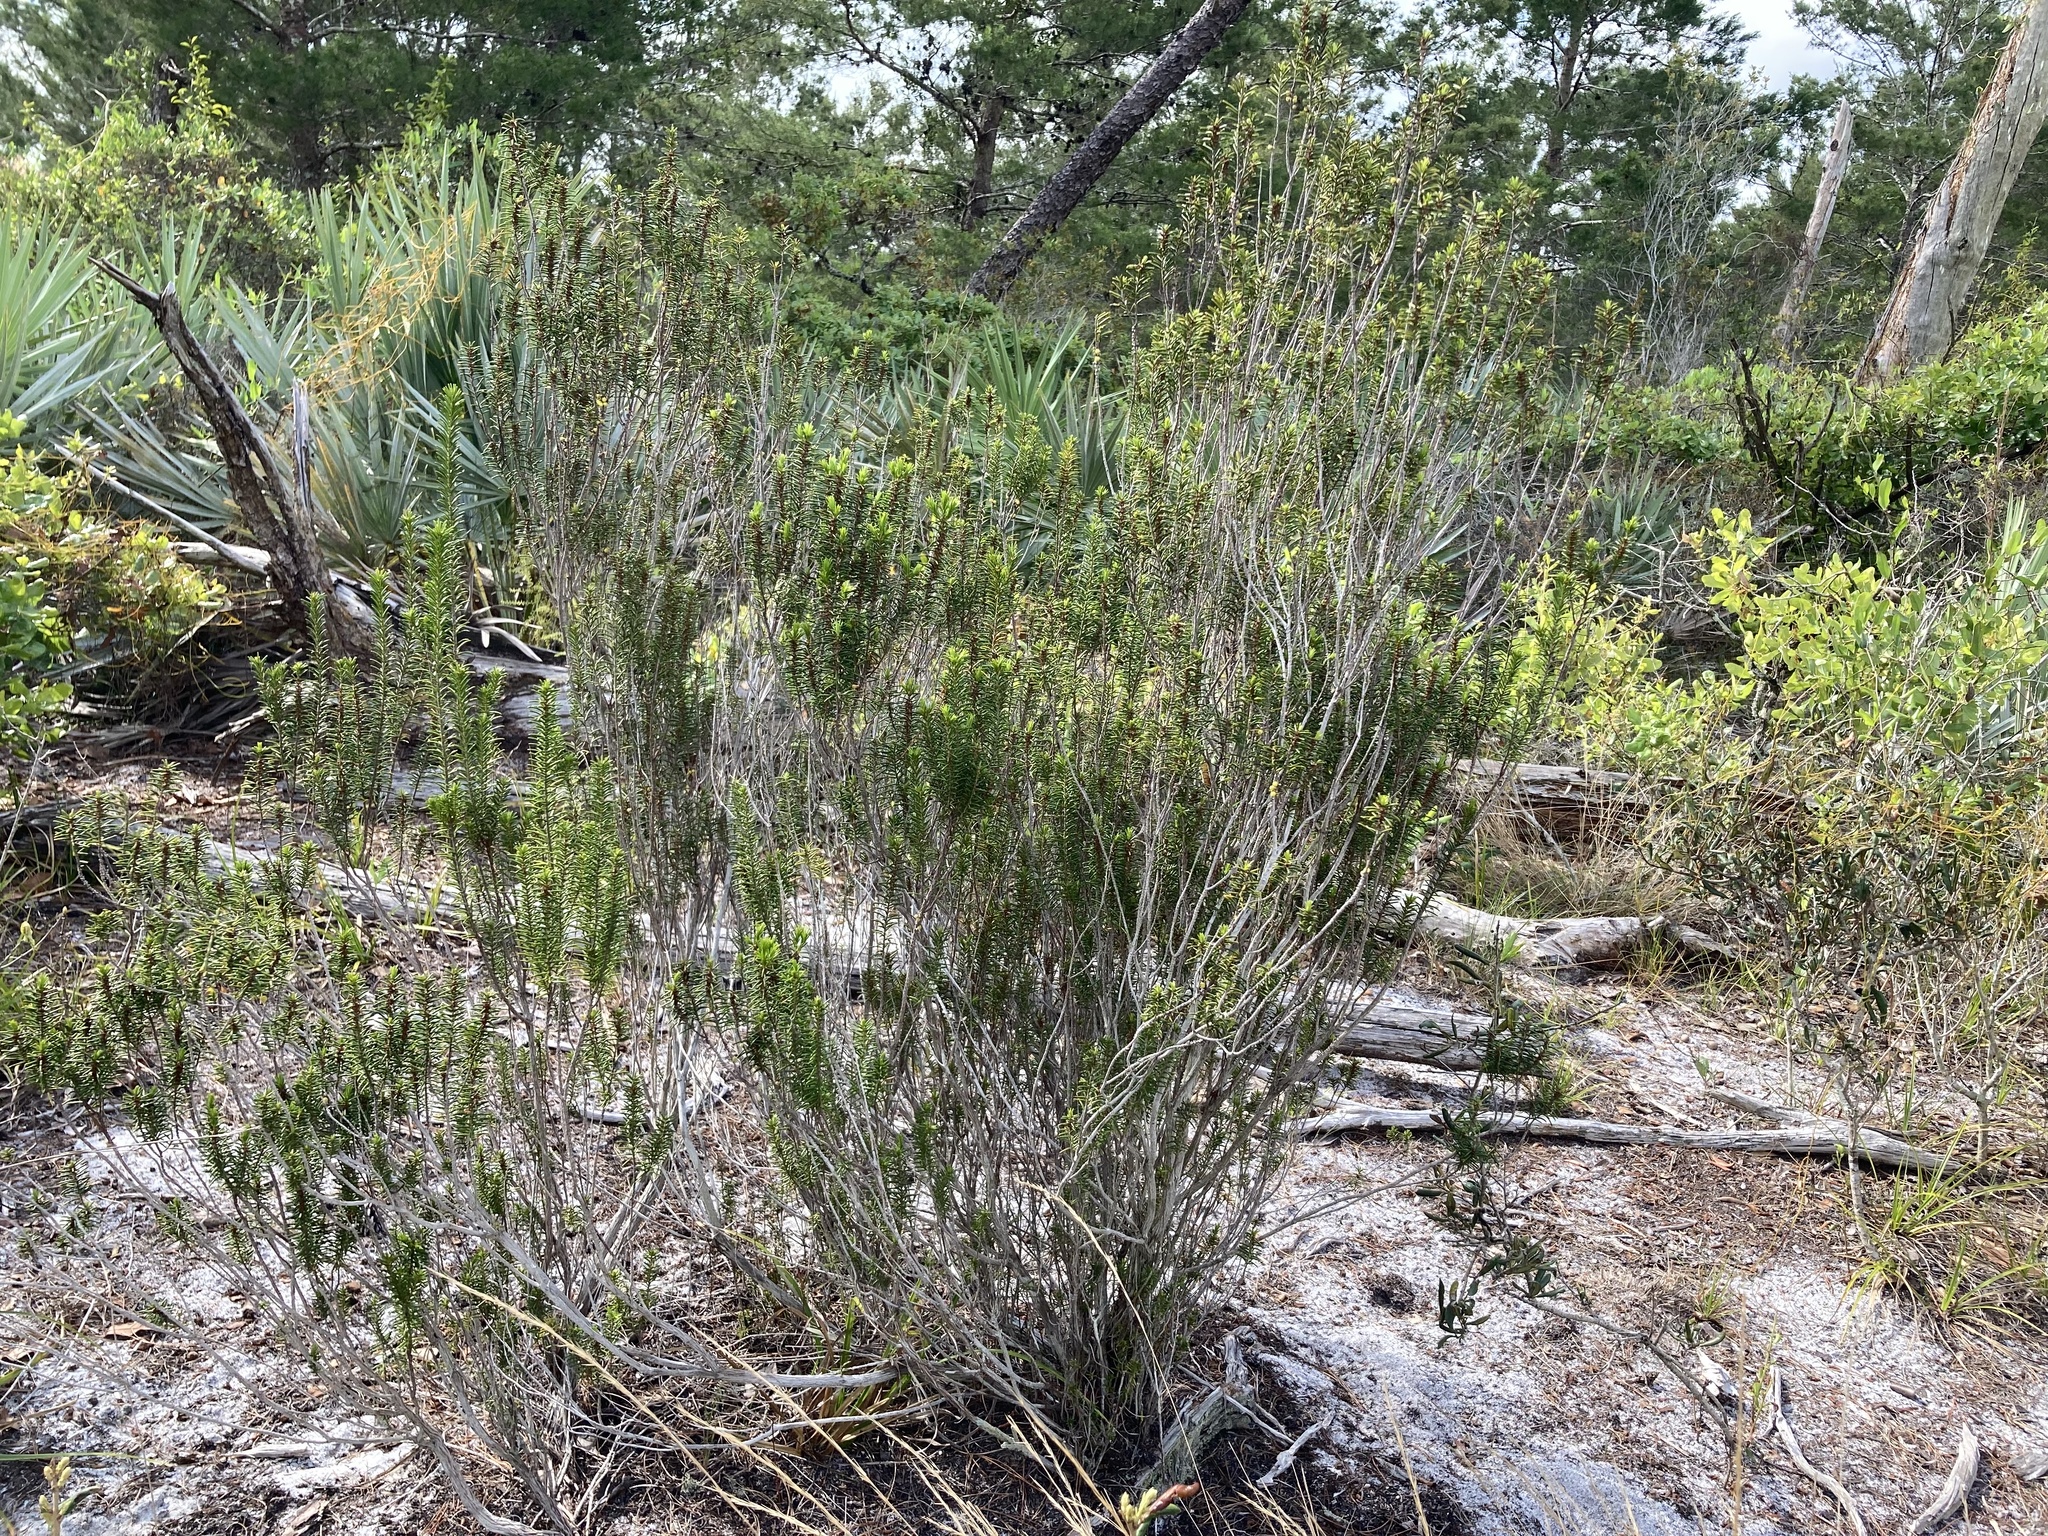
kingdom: Plantae
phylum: Tracheophyta
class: Magnoliopsida
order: Ericales
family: Ericaceae
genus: Ceratiola
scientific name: Ceratiola ericoides
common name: Sandhill-rosemary
